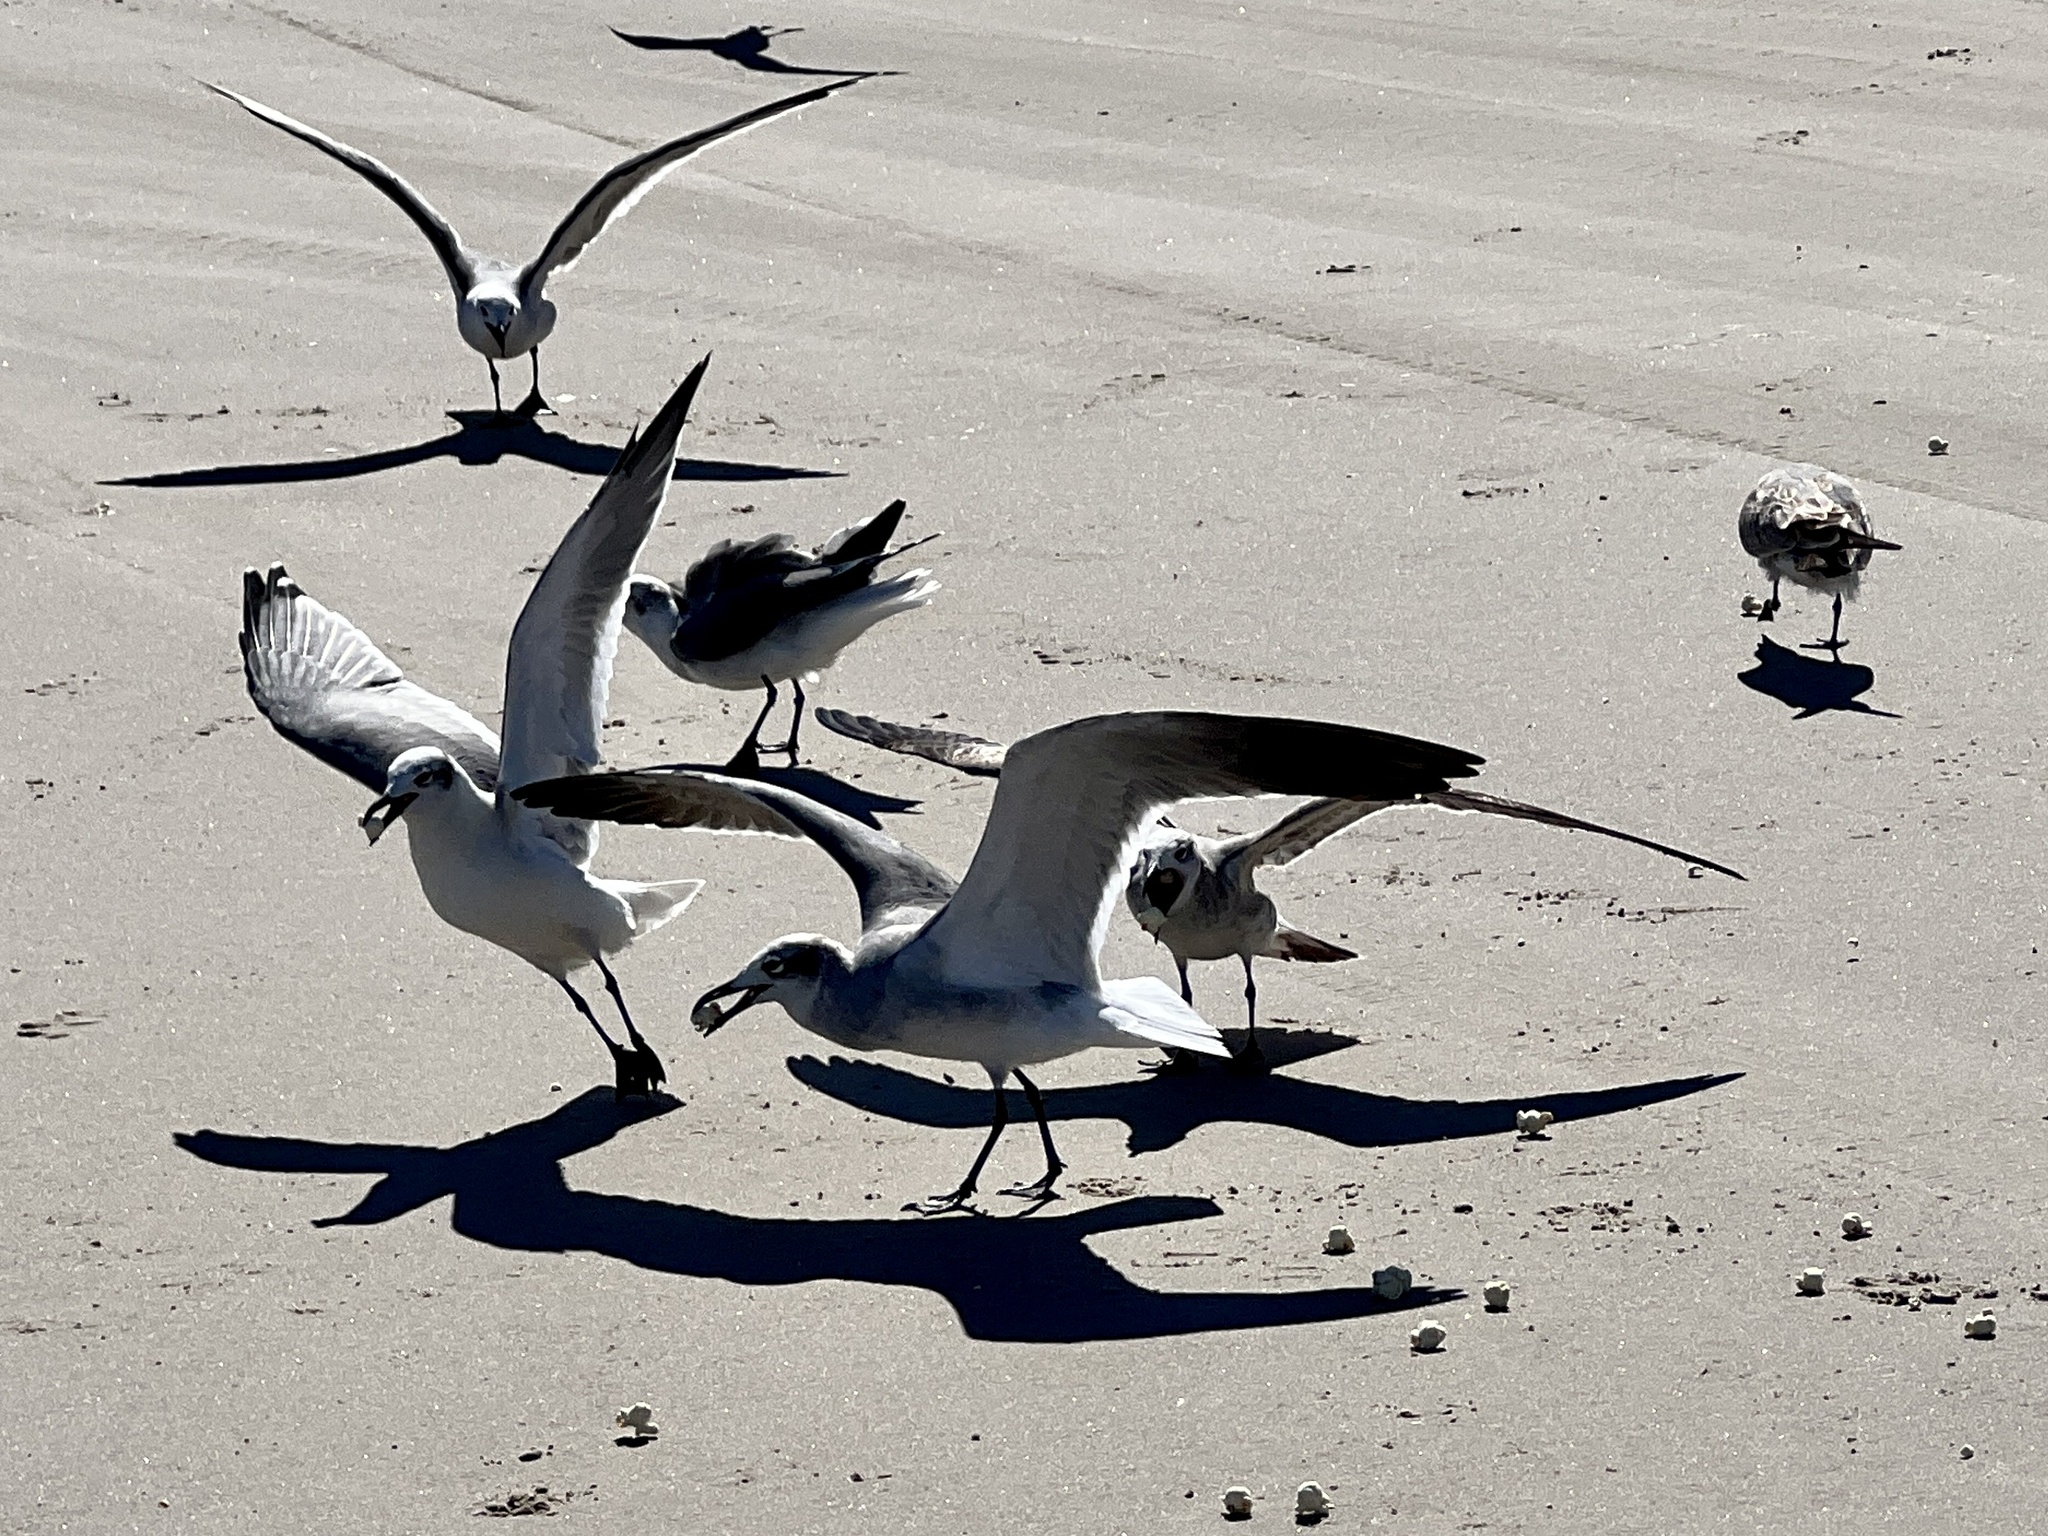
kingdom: Animalia
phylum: Chordata
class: Aves
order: Charadriiformes
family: Laridae
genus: Leucophaeus
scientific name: Leucophaeus atricilla
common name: Laughing gull
